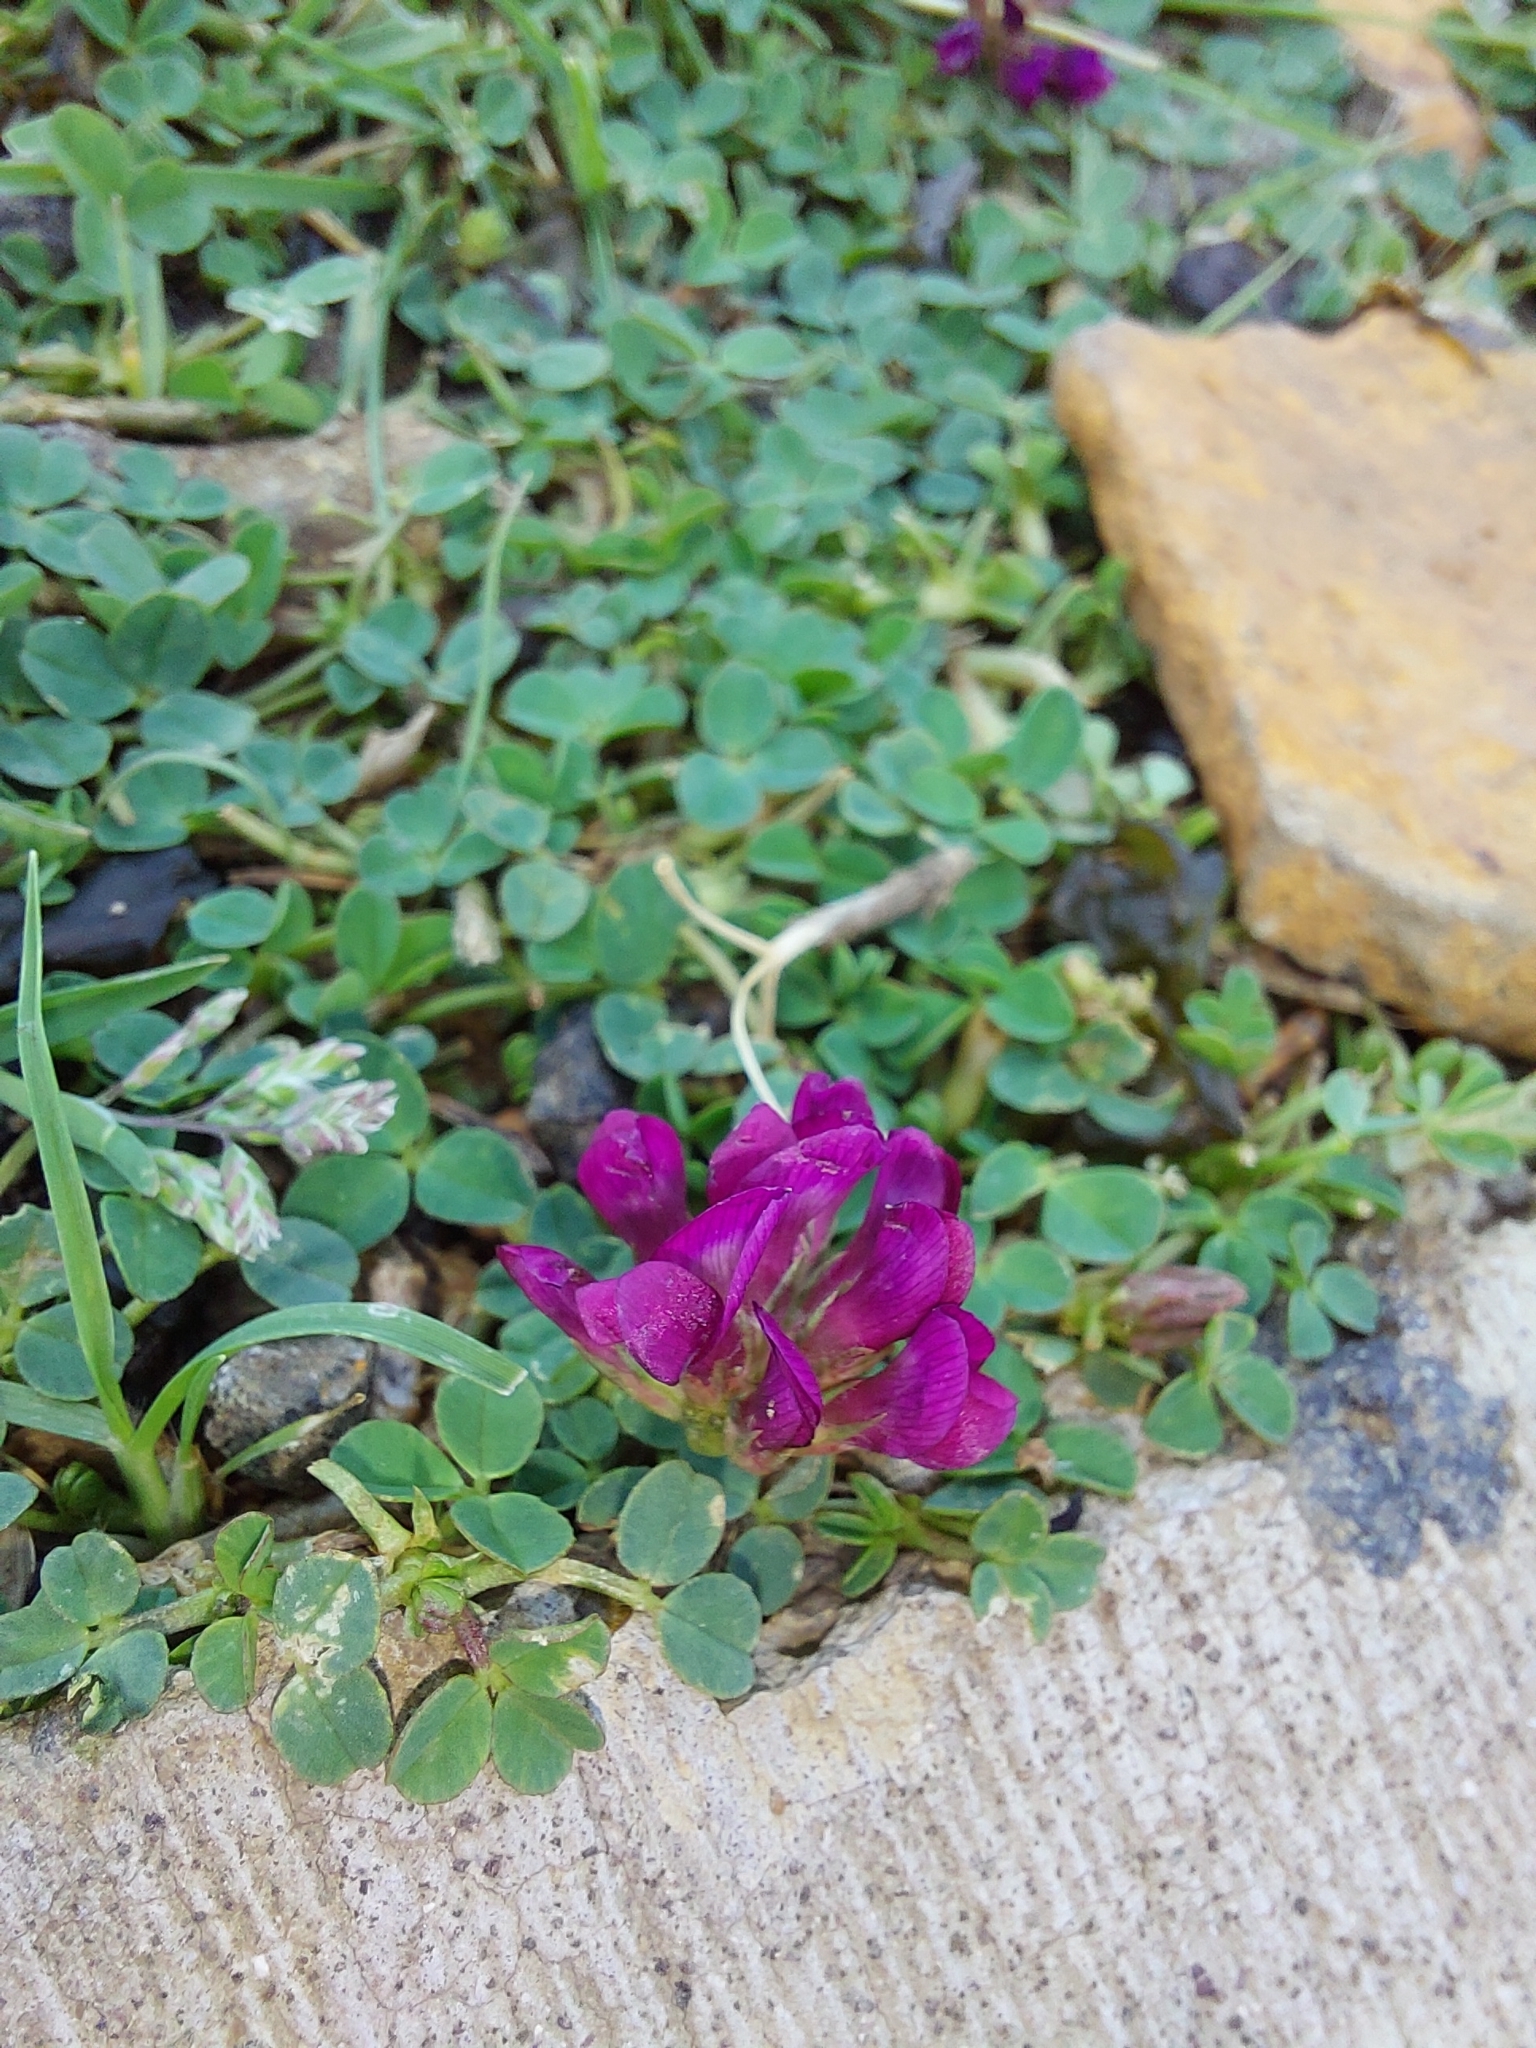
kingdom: Plantae
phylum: Tracheophyta
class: Magnoliopsida
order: Fabales
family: Fabaceae
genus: Trifolium
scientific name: Trifolium burchellianum
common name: Burchell's clover
